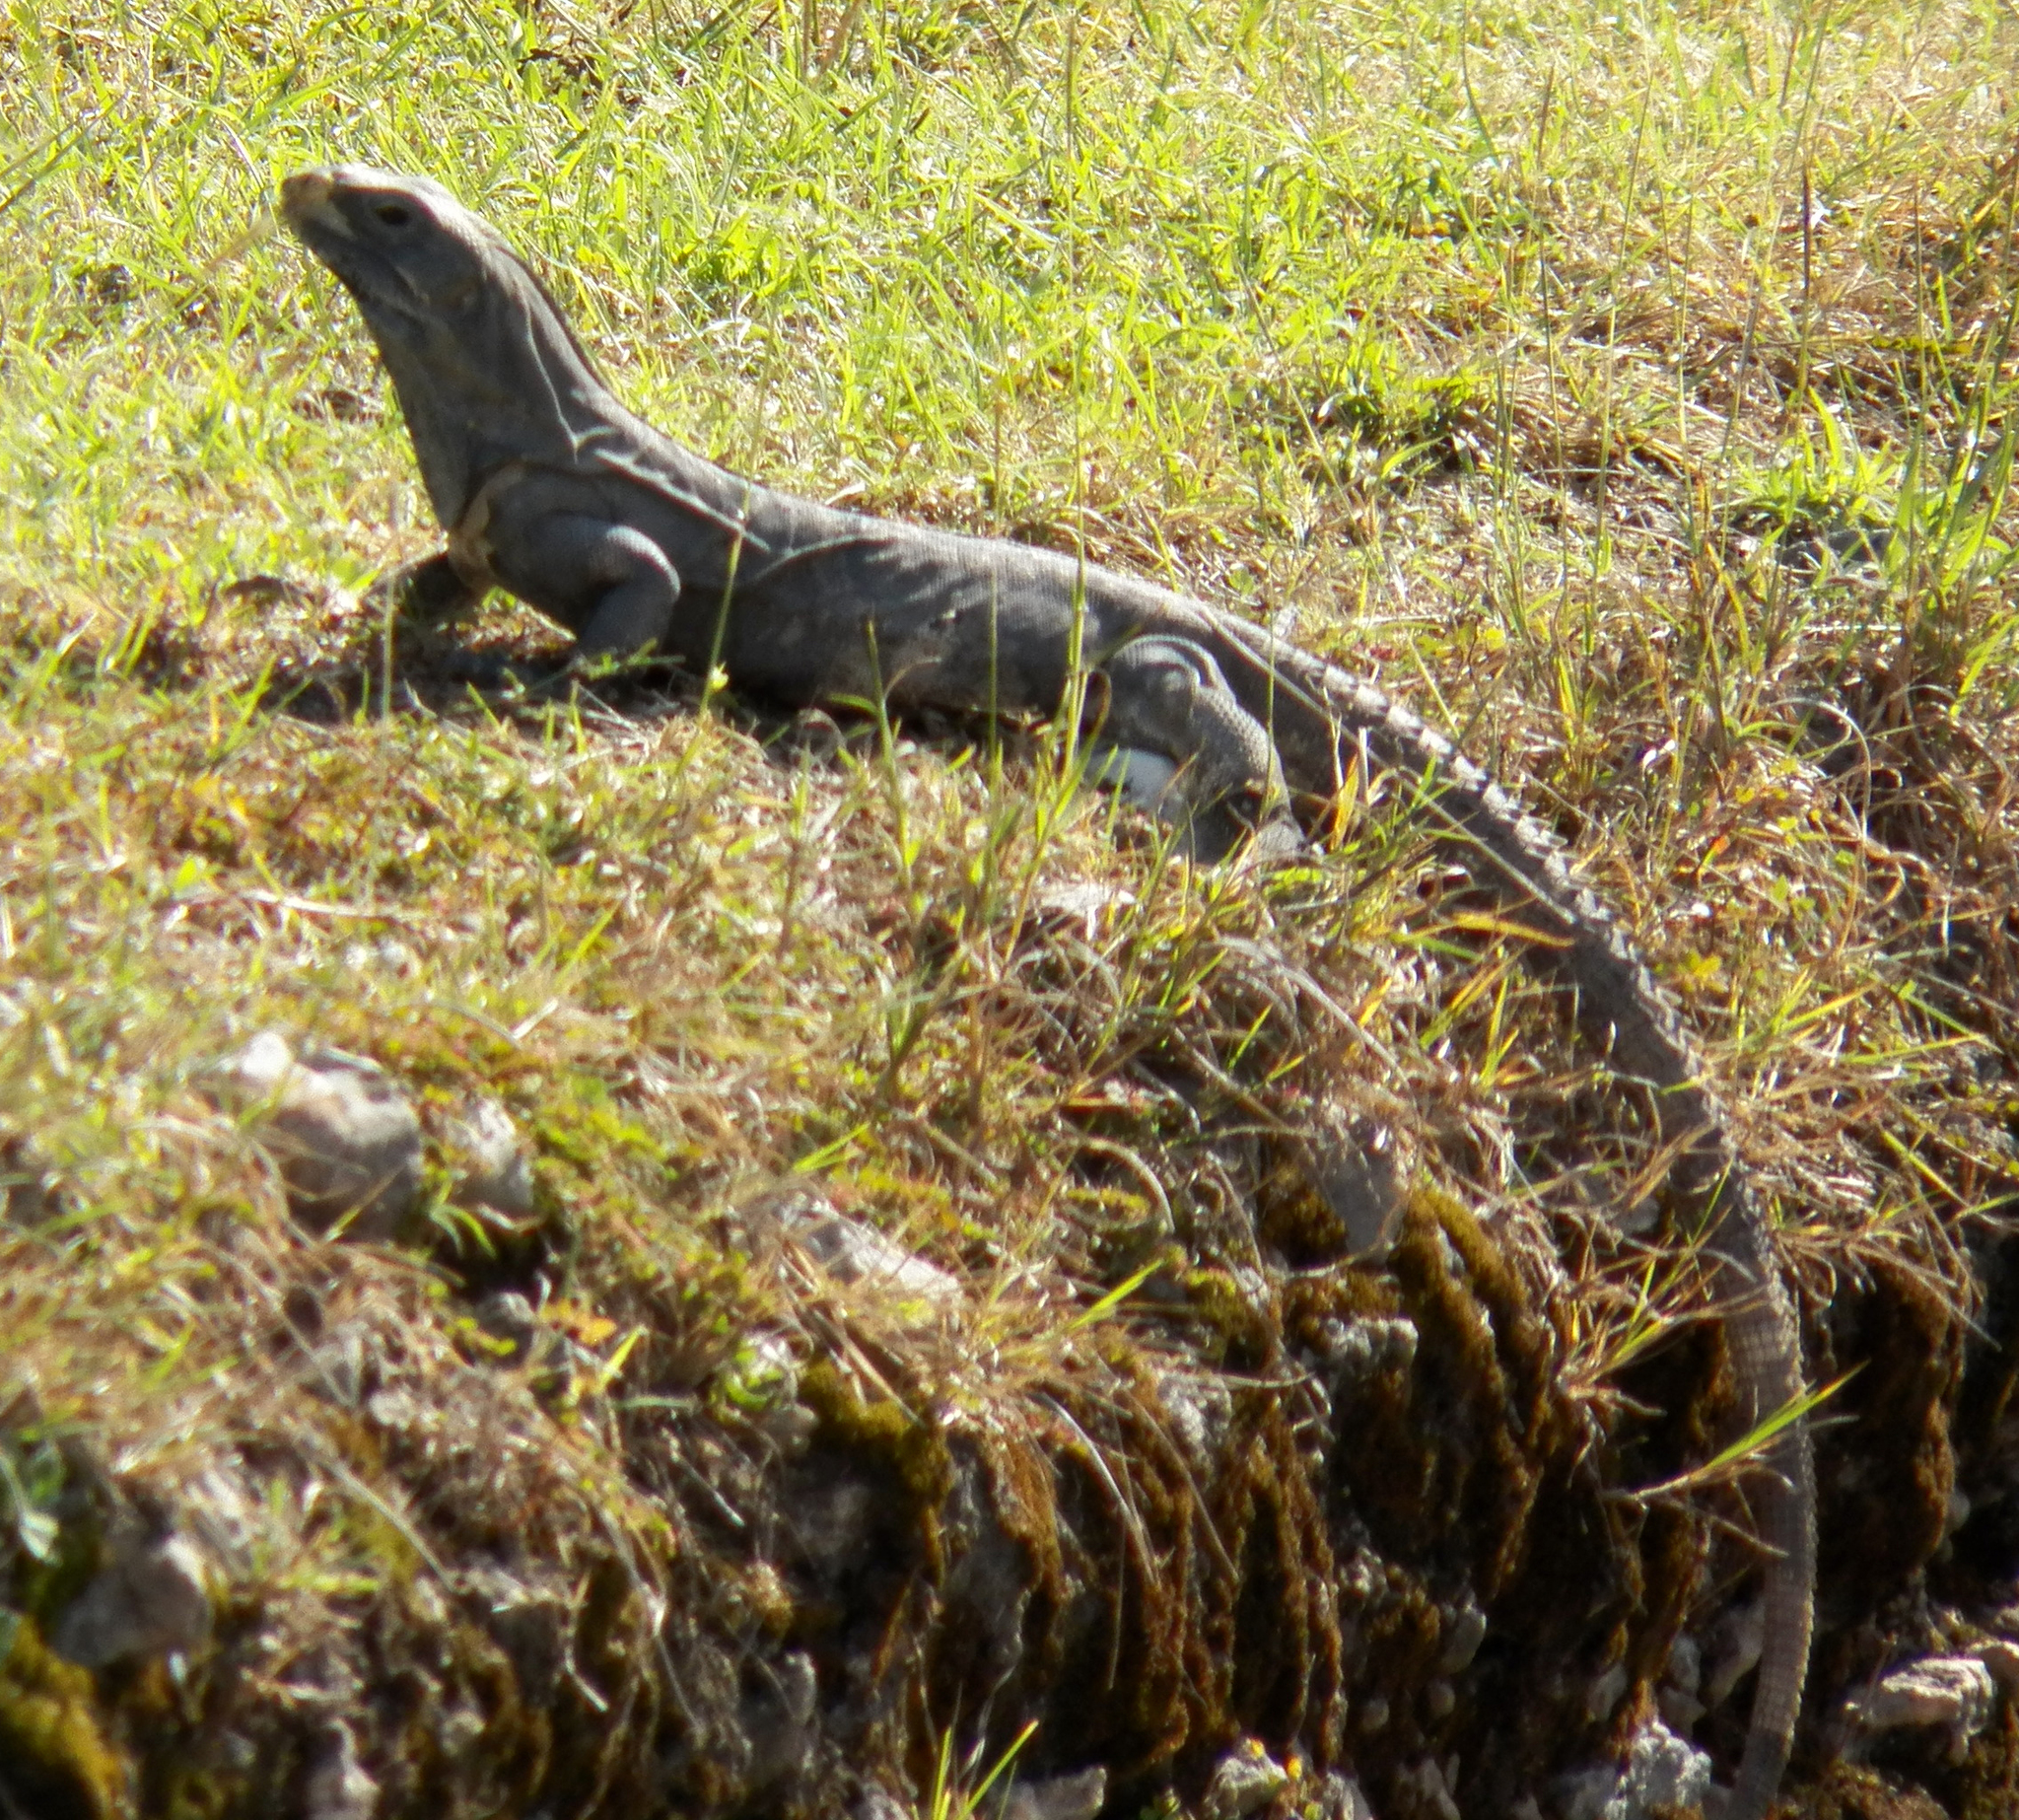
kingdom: Animalia
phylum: Chordata
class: Squamata
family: Iguanidae
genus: Ctenosaura
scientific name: Ctenosaura similis
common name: Black spiny-tailed iguana
